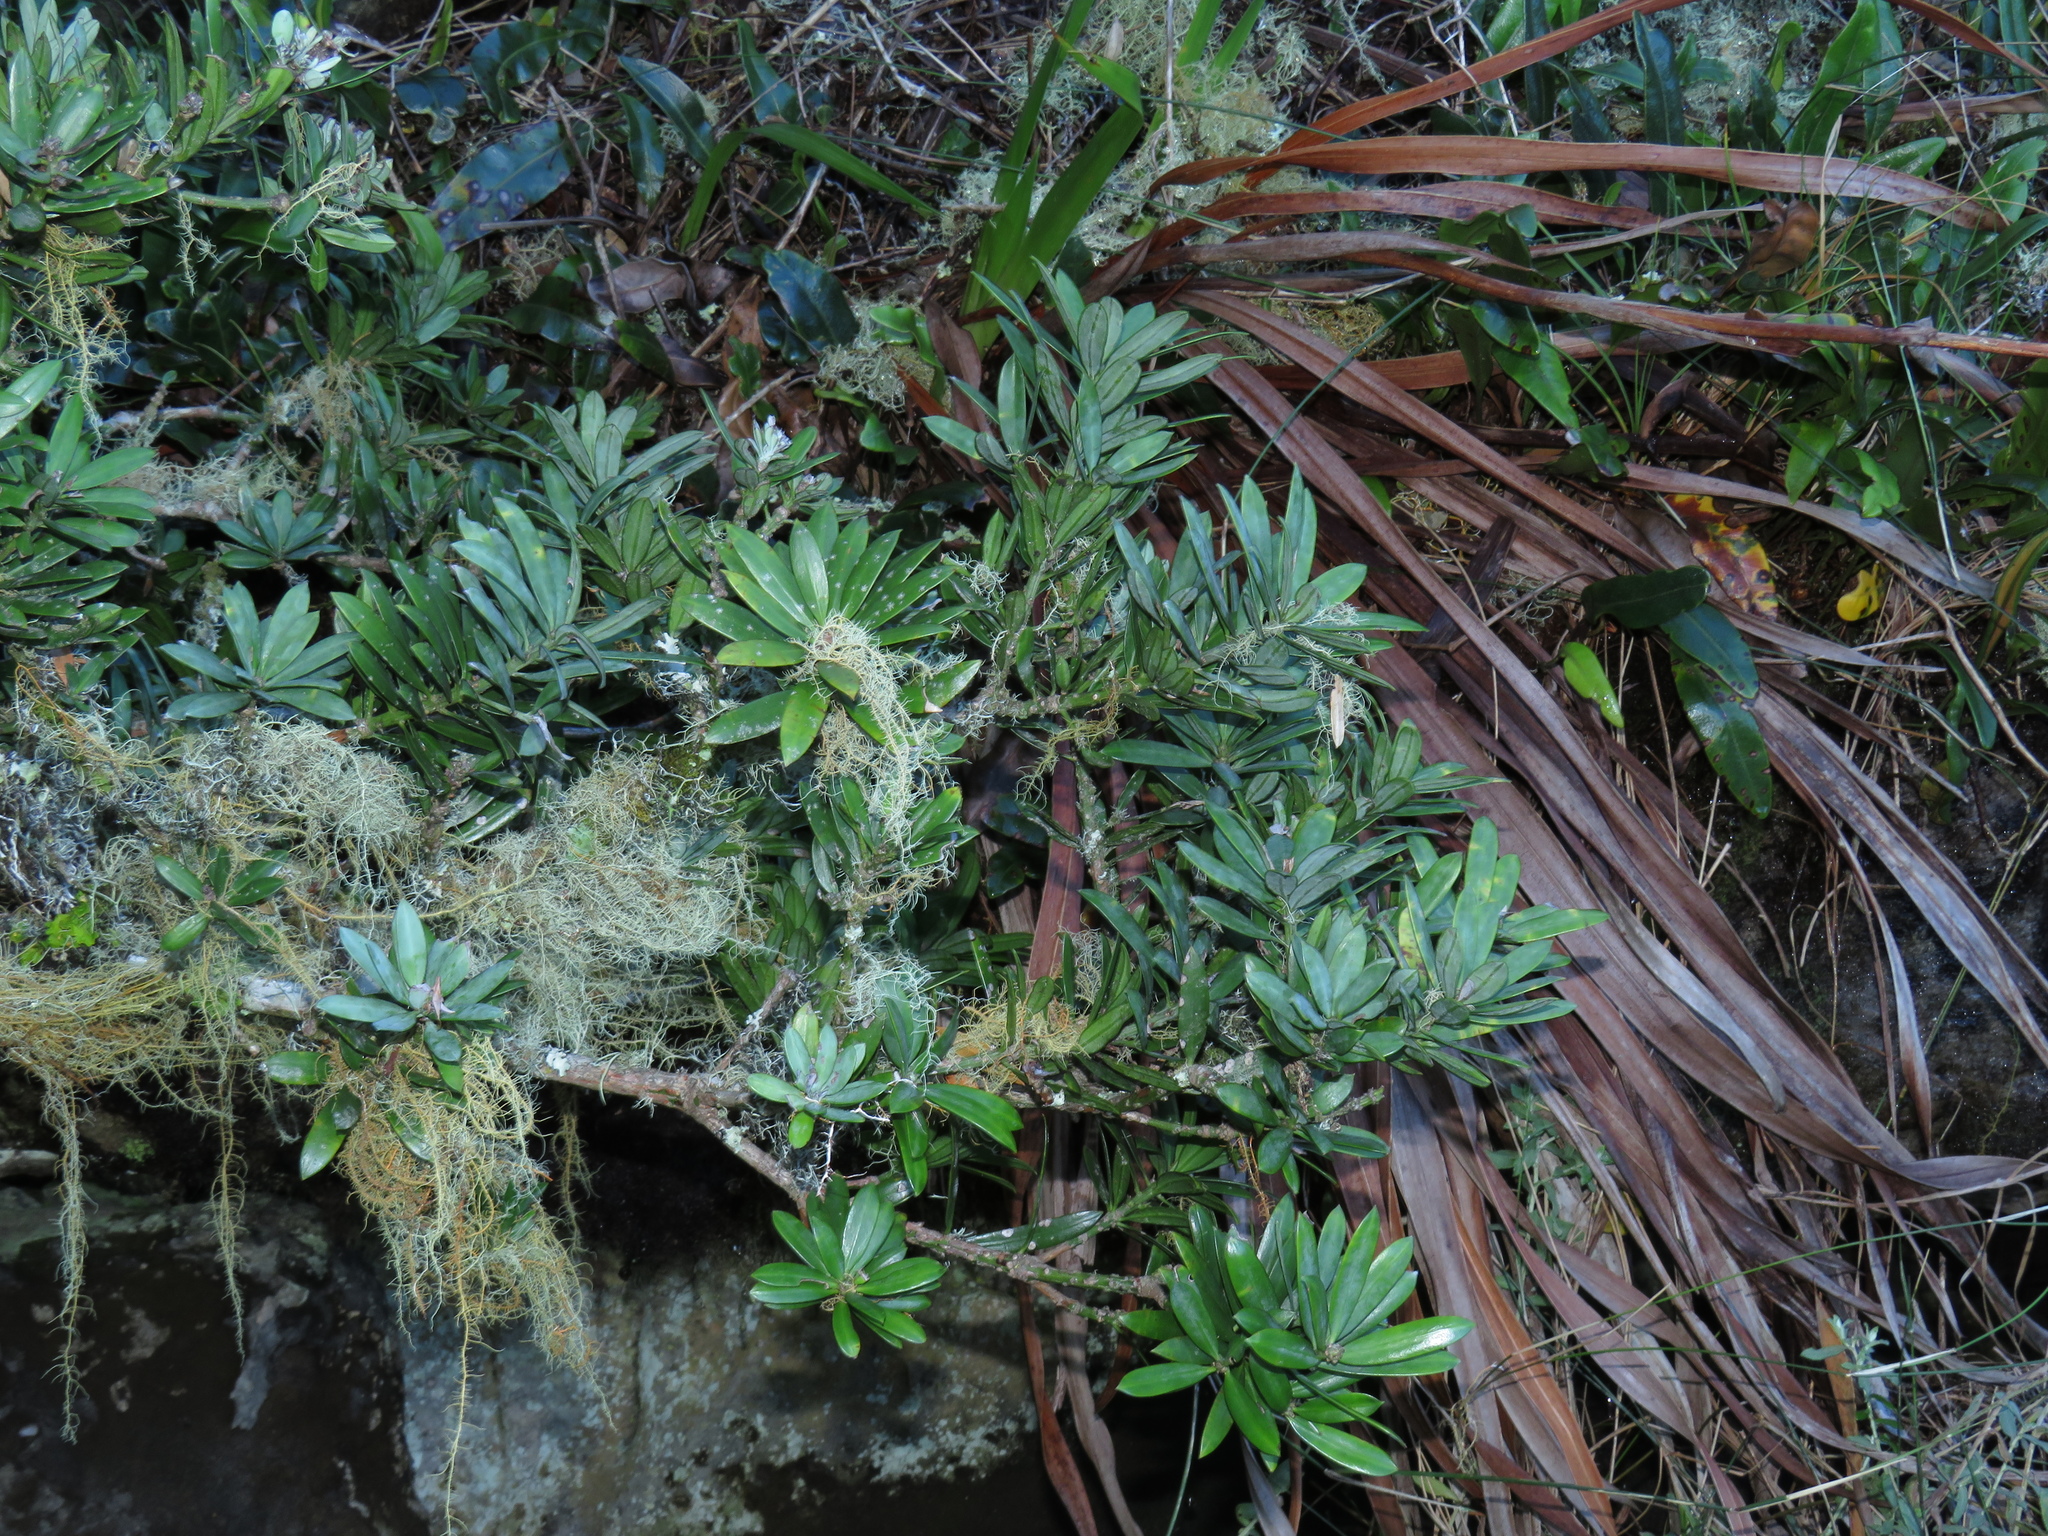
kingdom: Plantae
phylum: Tracheophyta
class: Pinopsida
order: Pinales
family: Podocarpaceae
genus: Podocarpus
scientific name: Podocarpus latifolius
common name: True yellowwood
